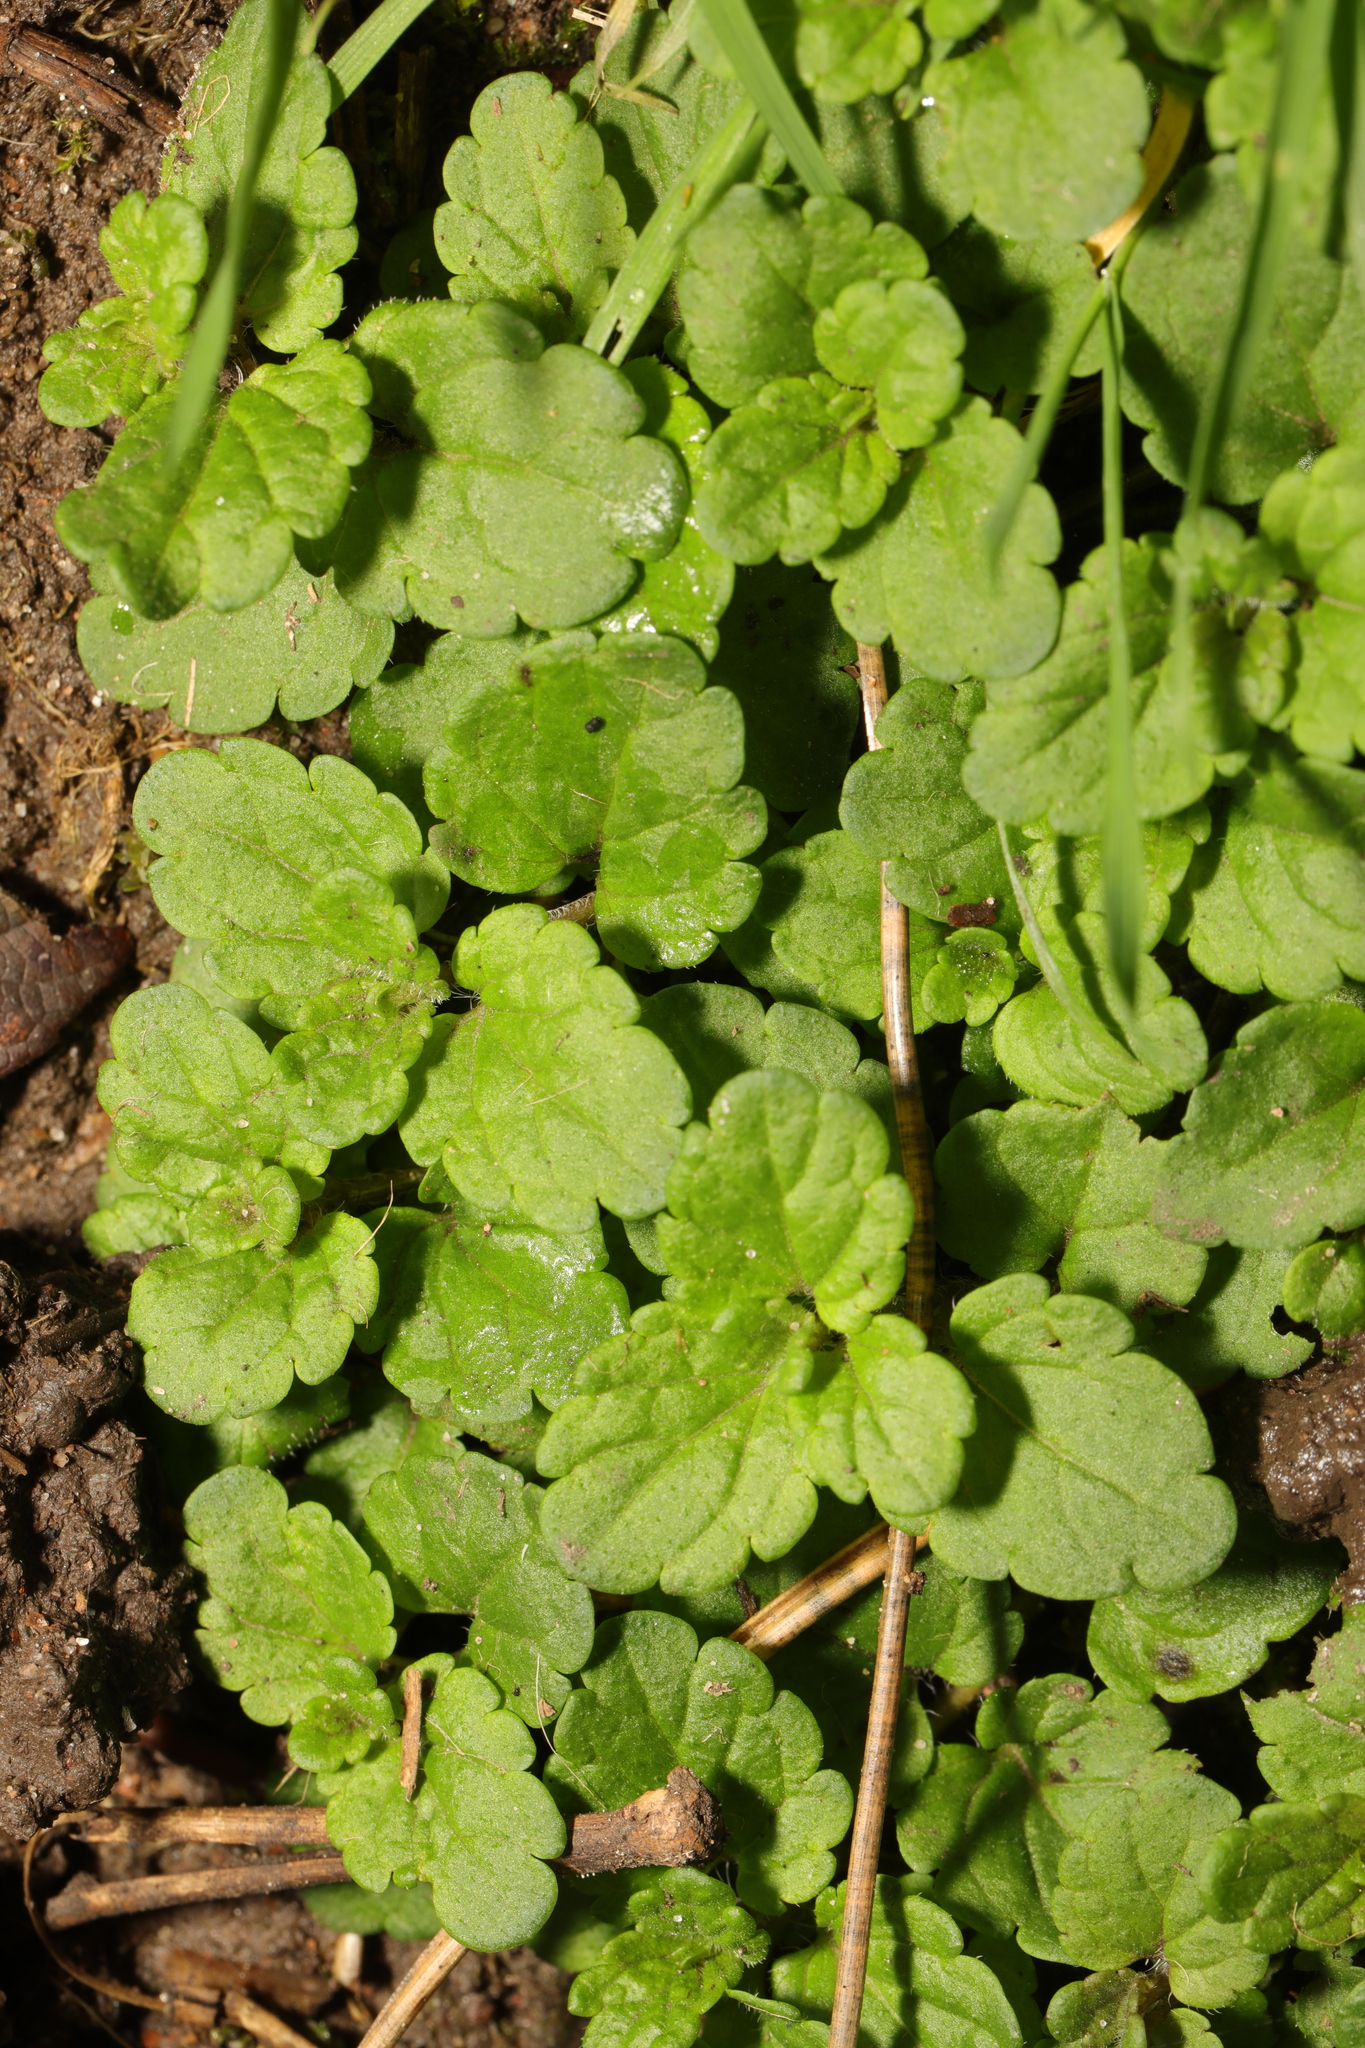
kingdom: Plantae
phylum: Tracheophyta
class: Magnoliopsida
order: Lamiales
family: Plantaginaceae
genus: Veronica
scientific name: Veronica persica
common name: Common field-speedwell
